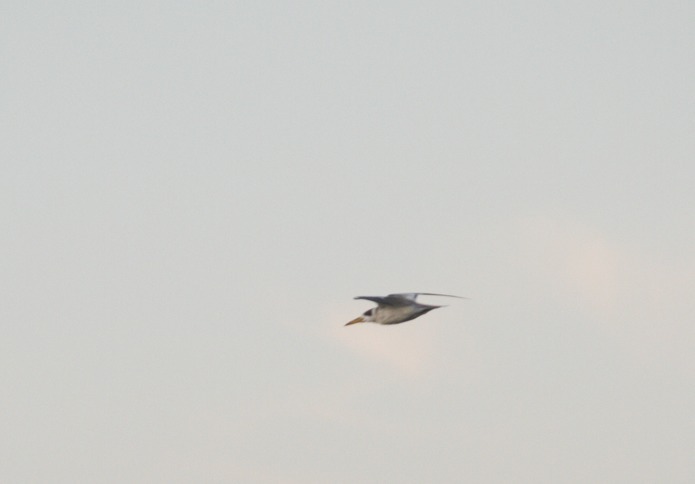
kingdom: Animalia
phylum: Chordata
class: Aves
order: Charadriiformes
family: Laridae
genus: Phaetusa
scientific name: Phaetusa simplex
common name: Large-billed tern
